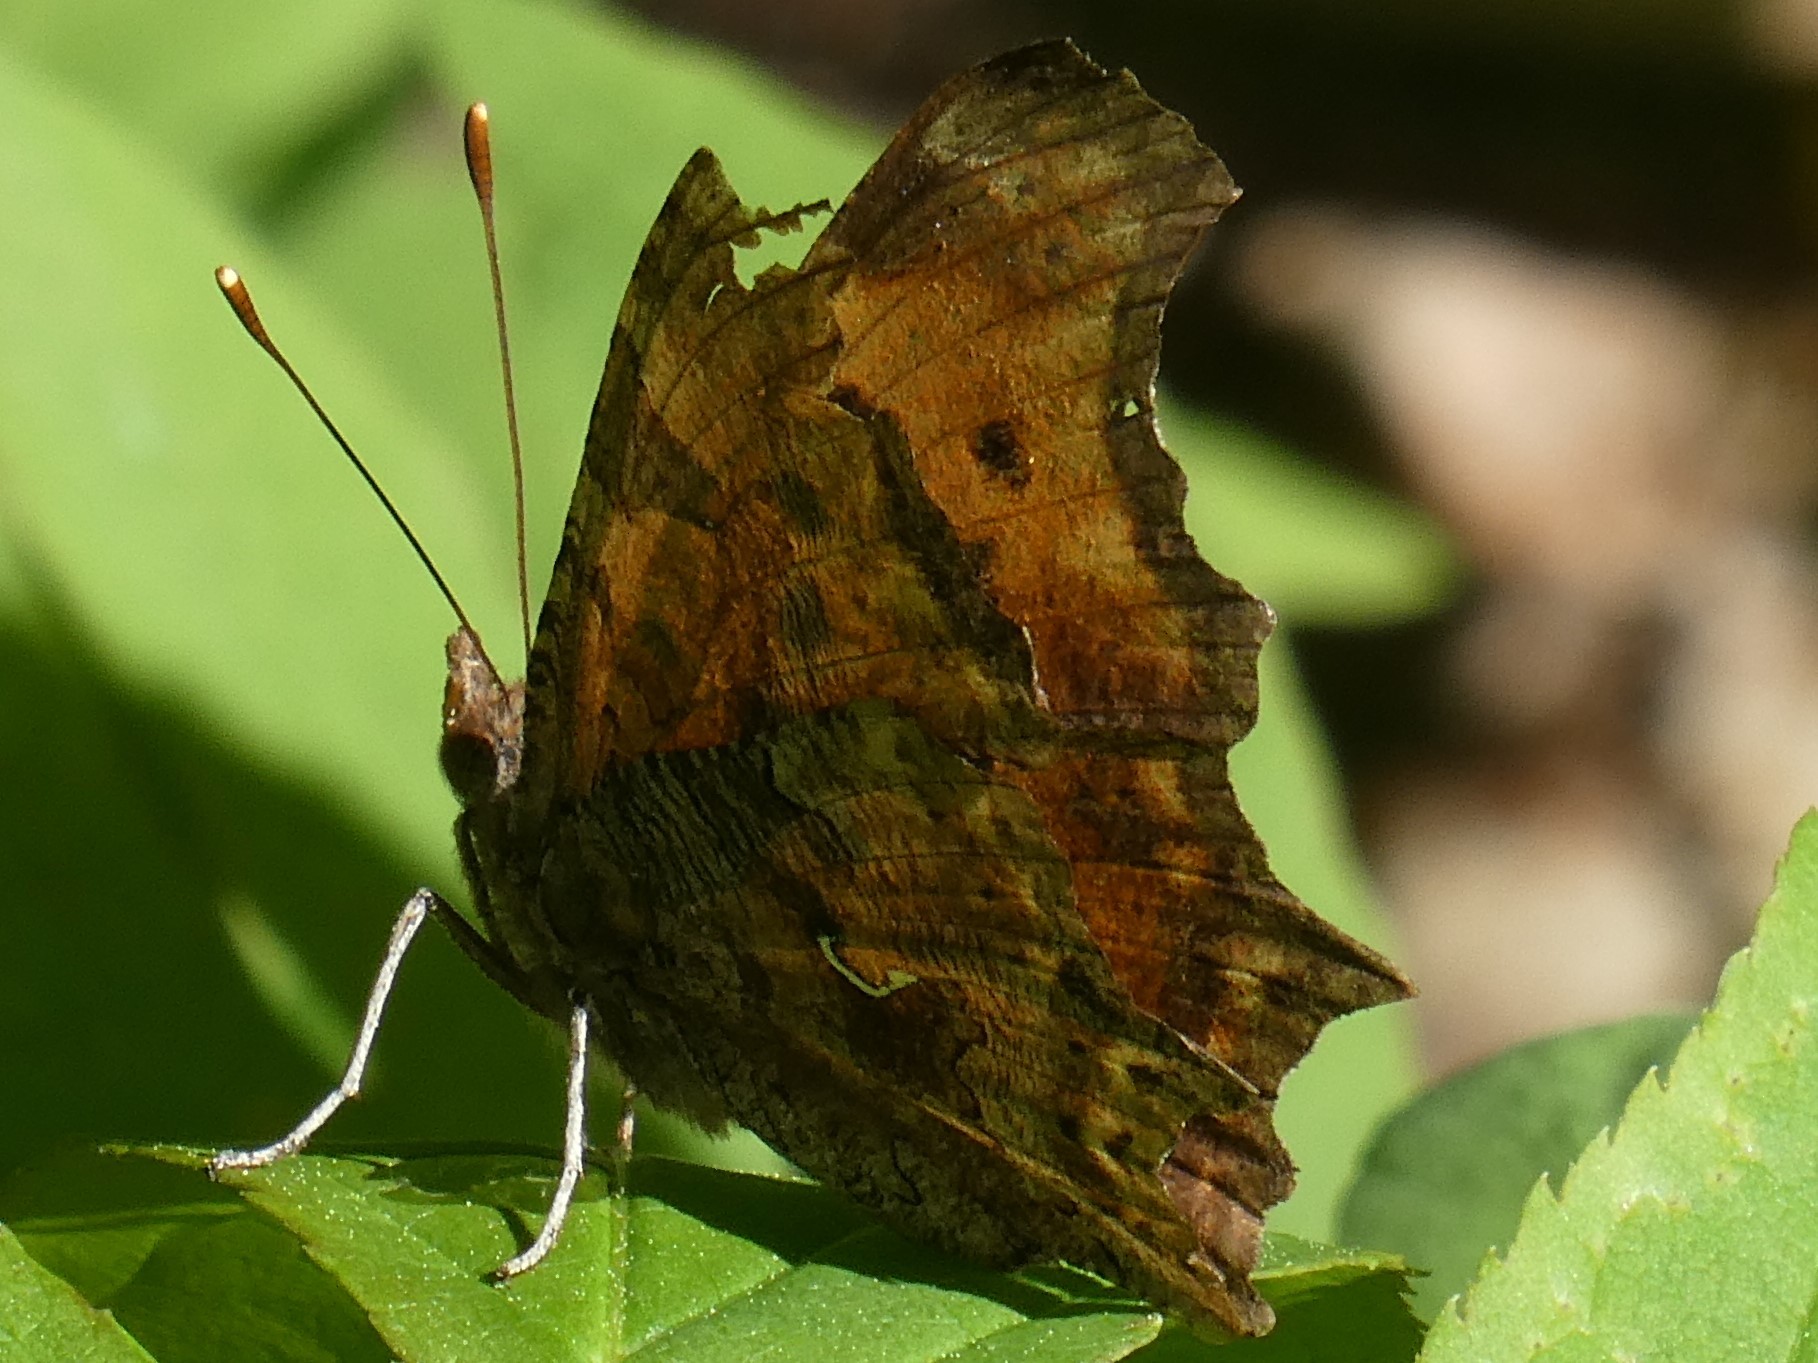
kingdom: Animalia
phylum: Arthropoda
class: Insecta
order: Lepidoptera
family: Nymphalidae
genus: Polygonia
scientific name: Polygonia comma
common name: Eastern comma
